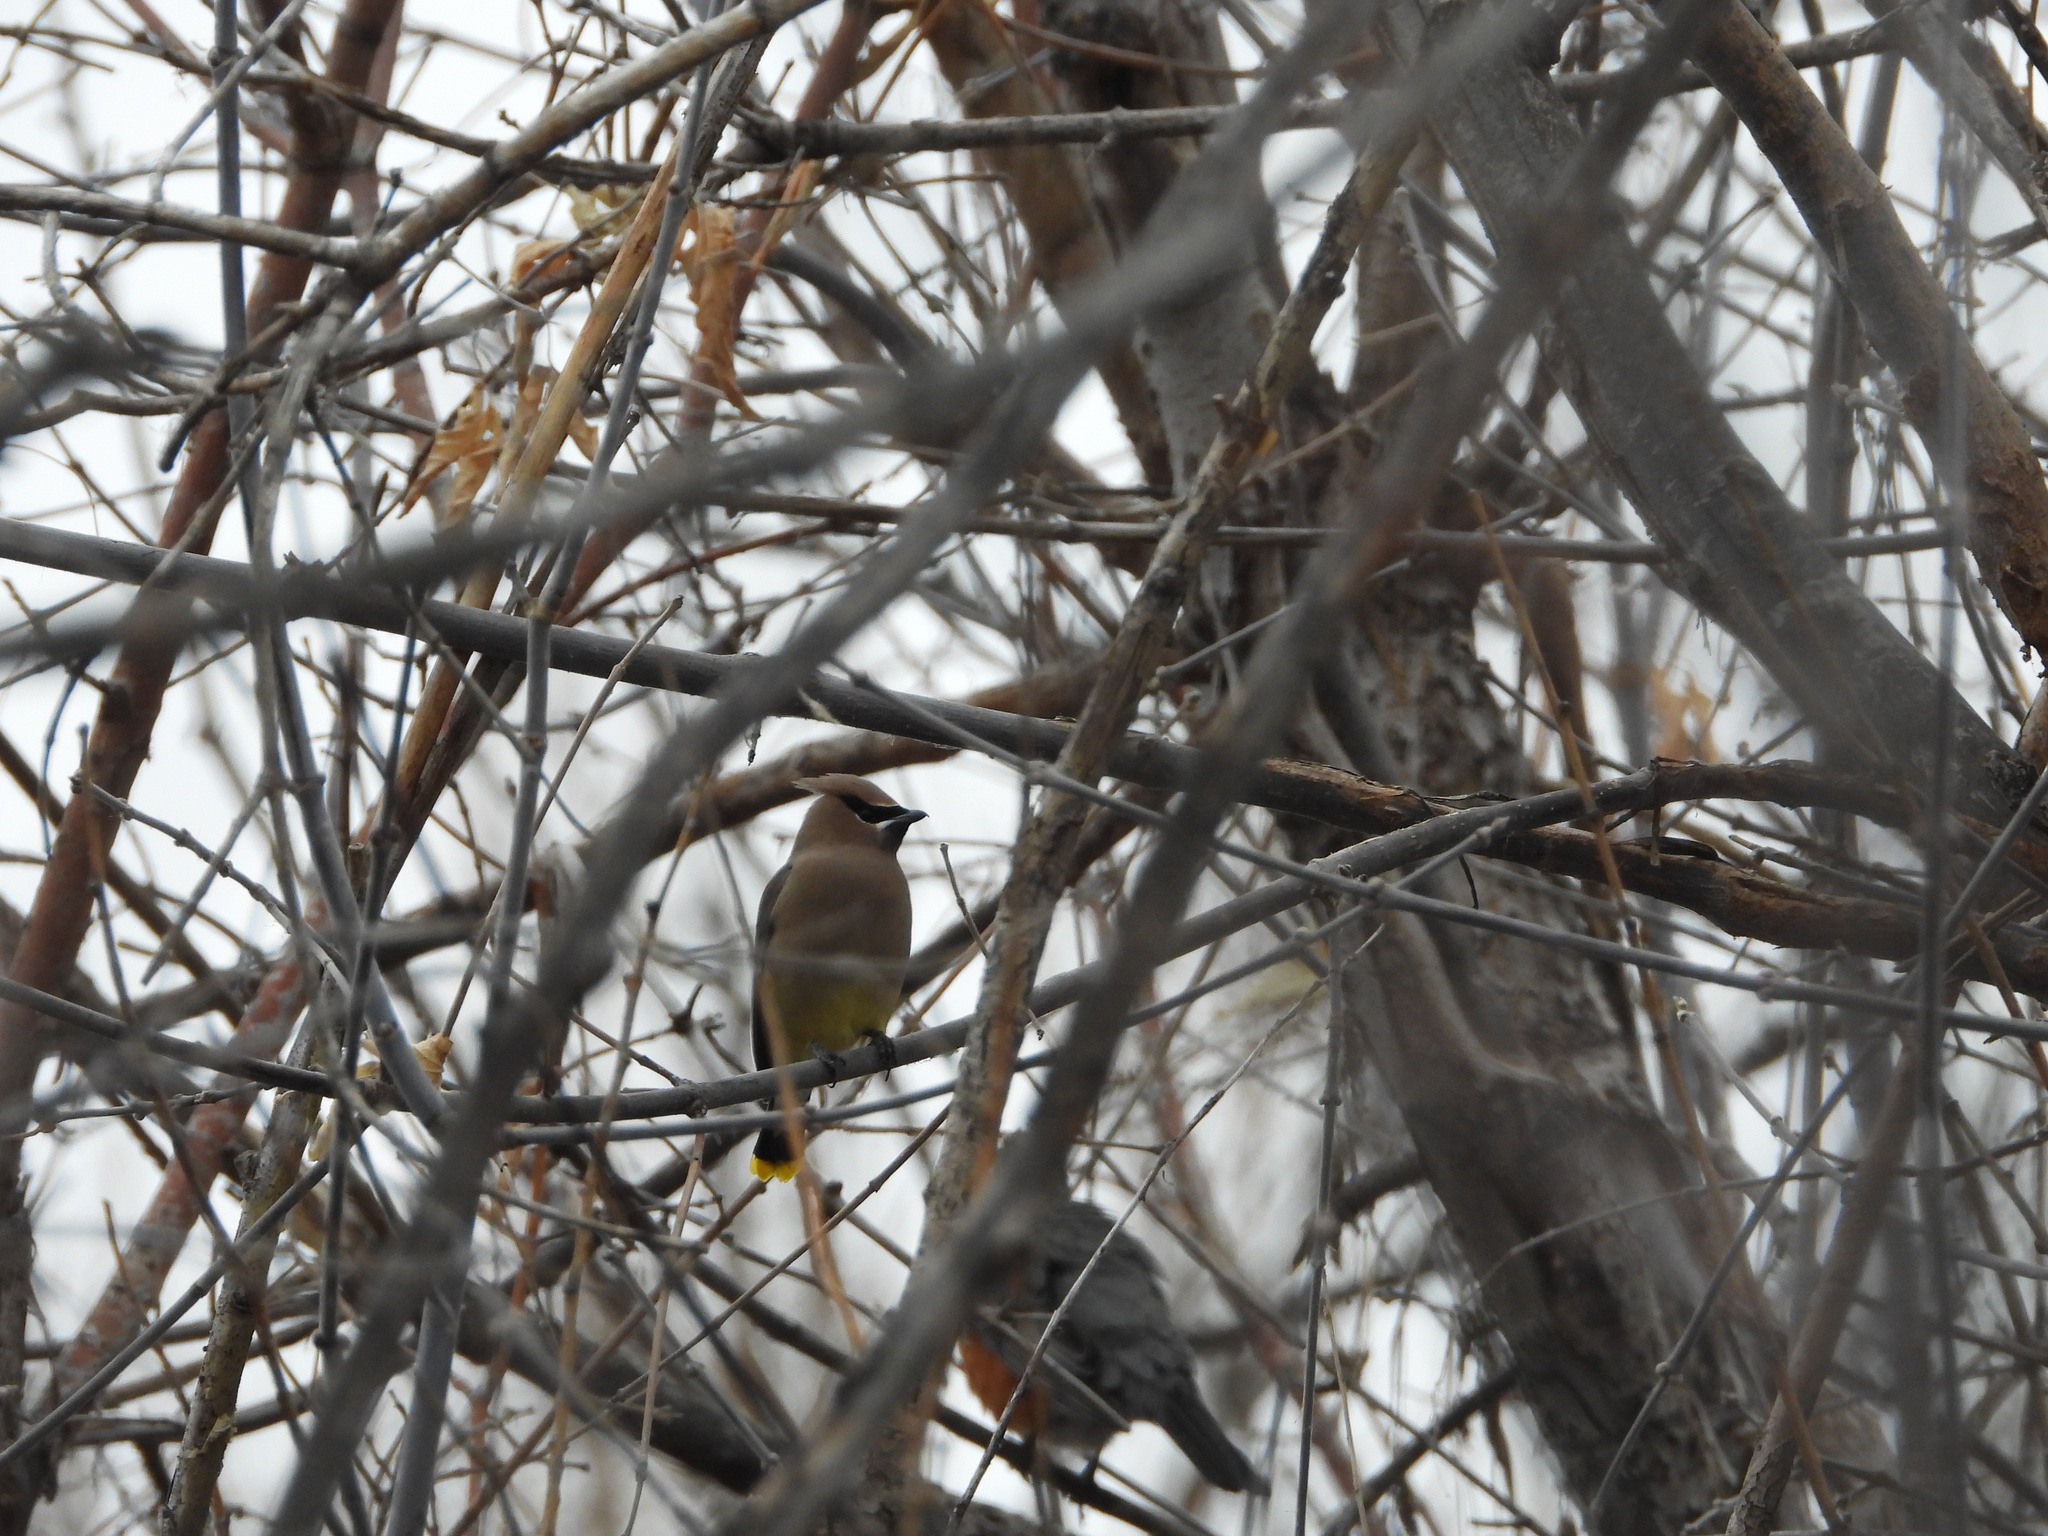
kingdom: Animalia
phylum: Chordata
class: Aves
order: Passeriformes
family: Bombycillidae
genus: Bombycilla
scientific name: Bombycilla cedrorum
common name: Cedar waxwing
